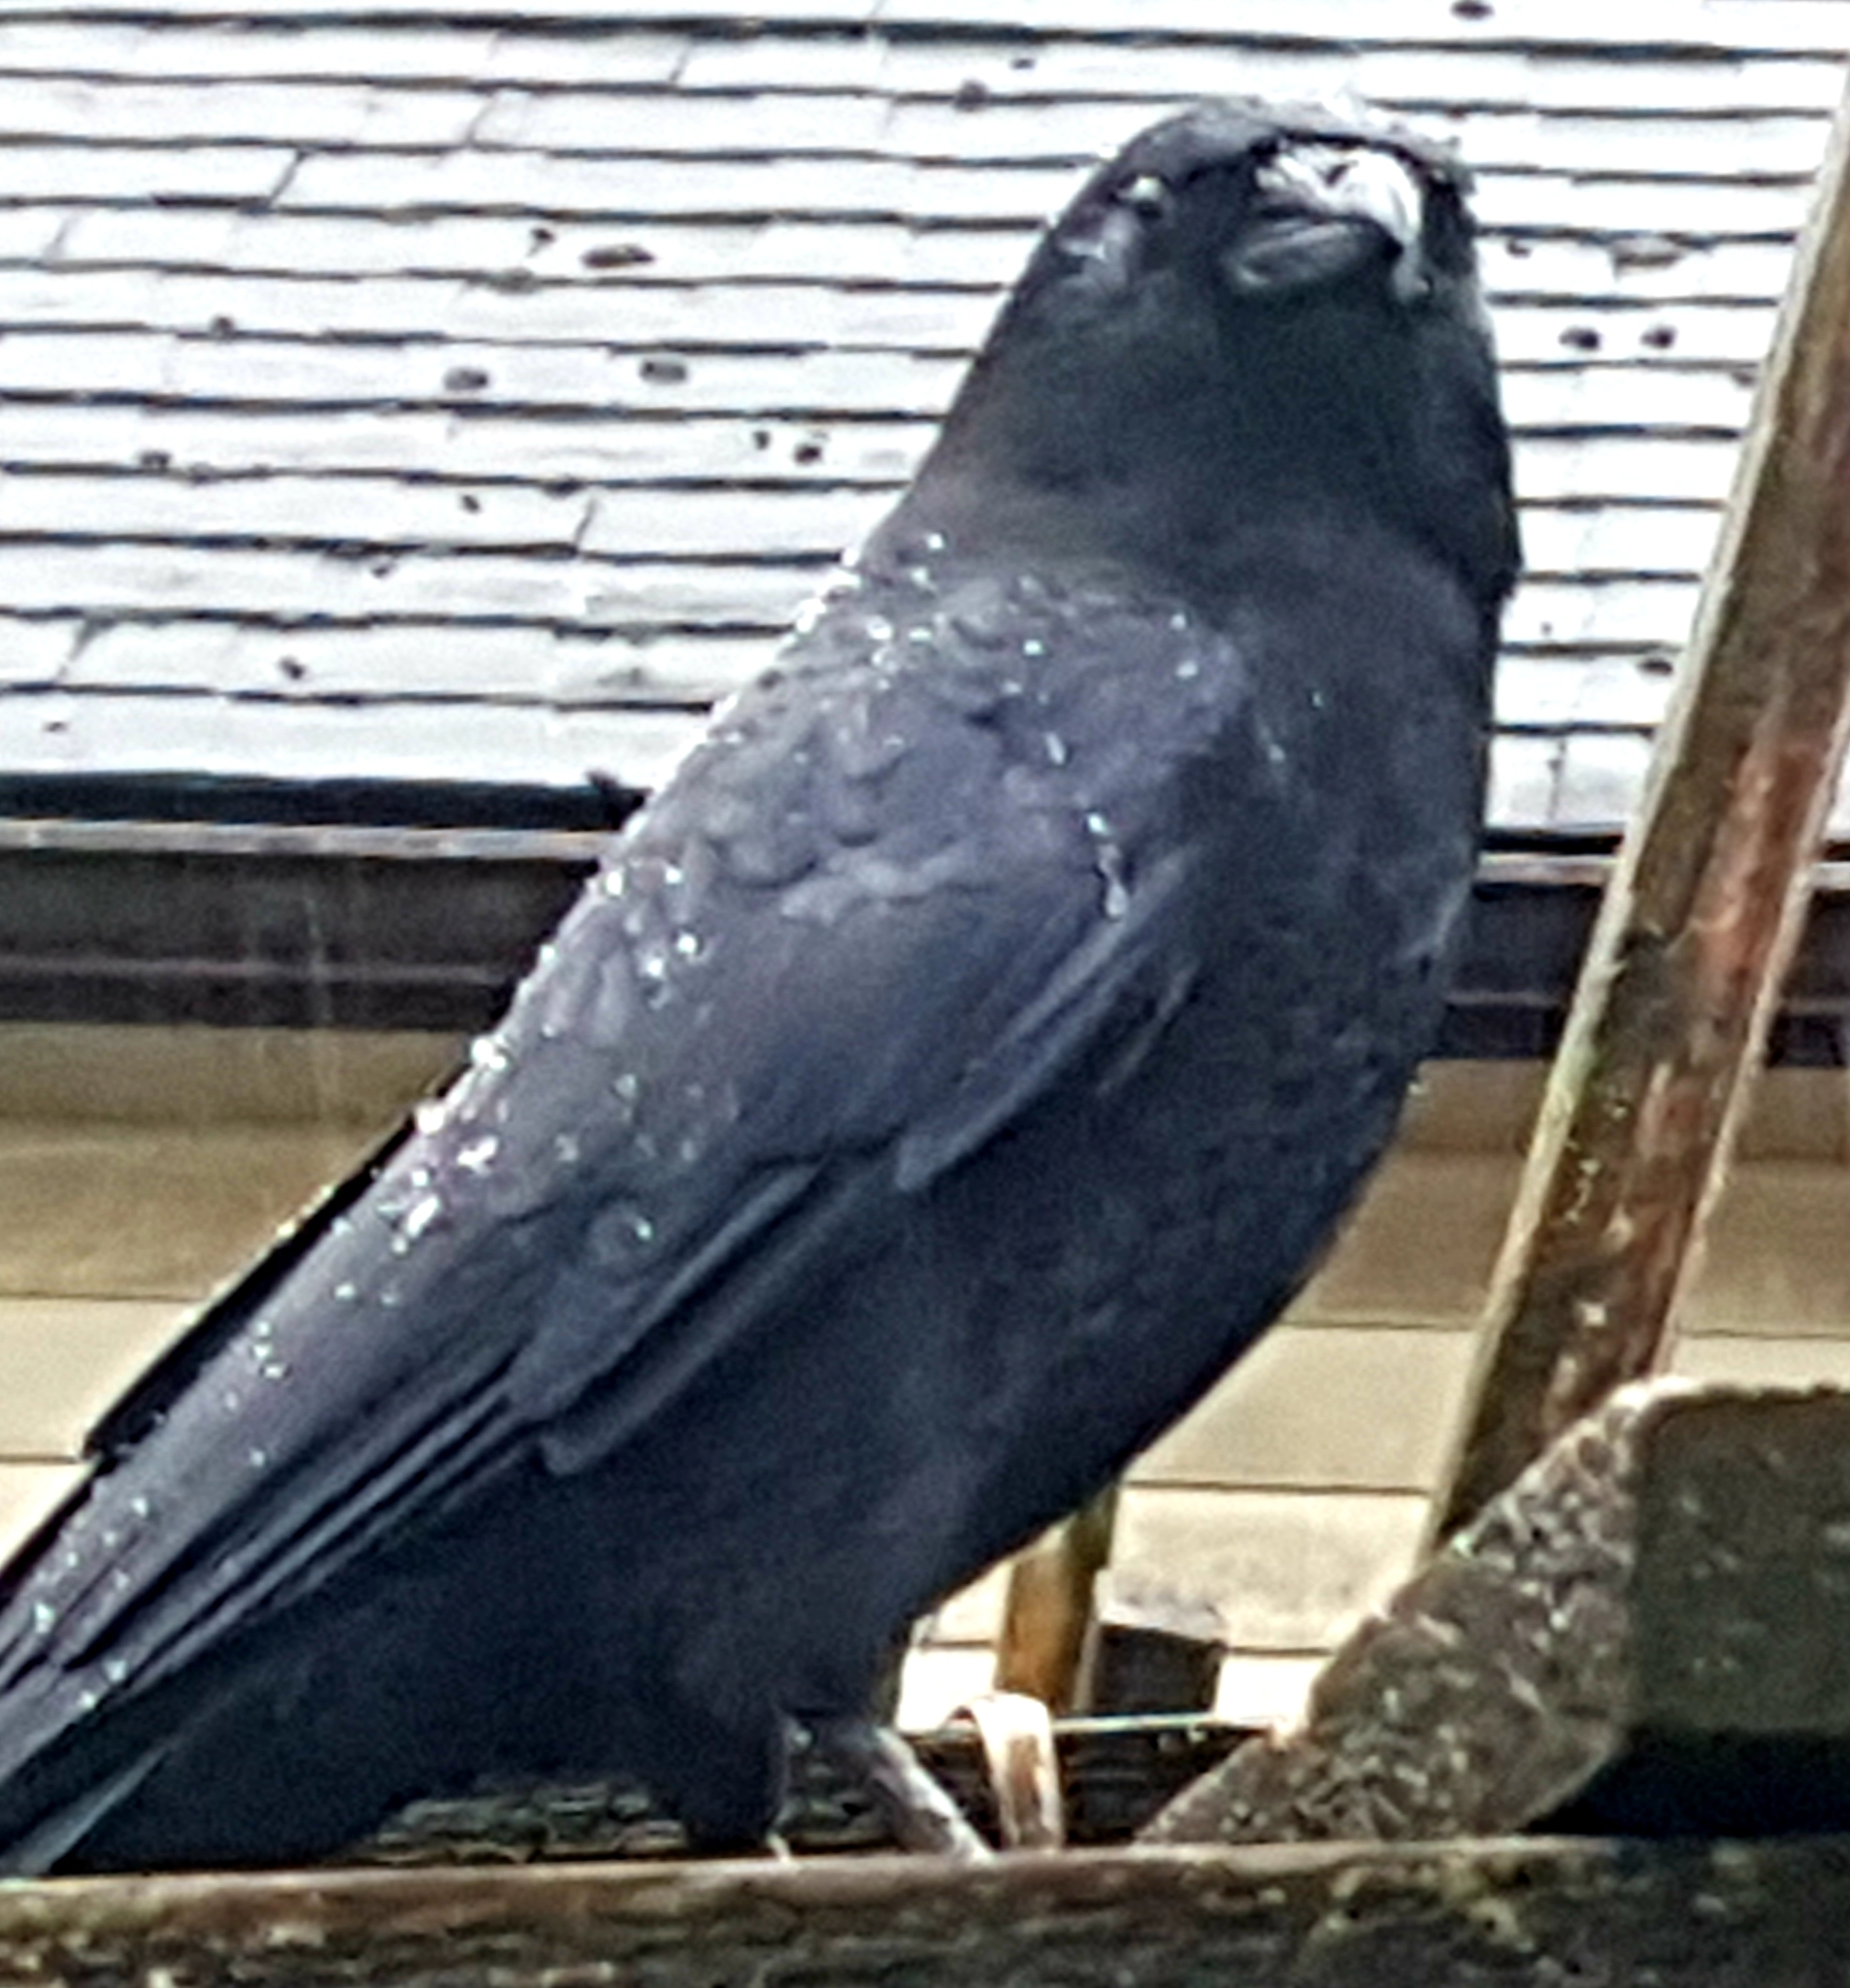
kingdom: Animalia
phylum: Chordata
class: Aves
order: Passeriformes
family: Corvidae
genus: Corvus
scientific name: Corvus brachyrhynchos
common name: American crow
